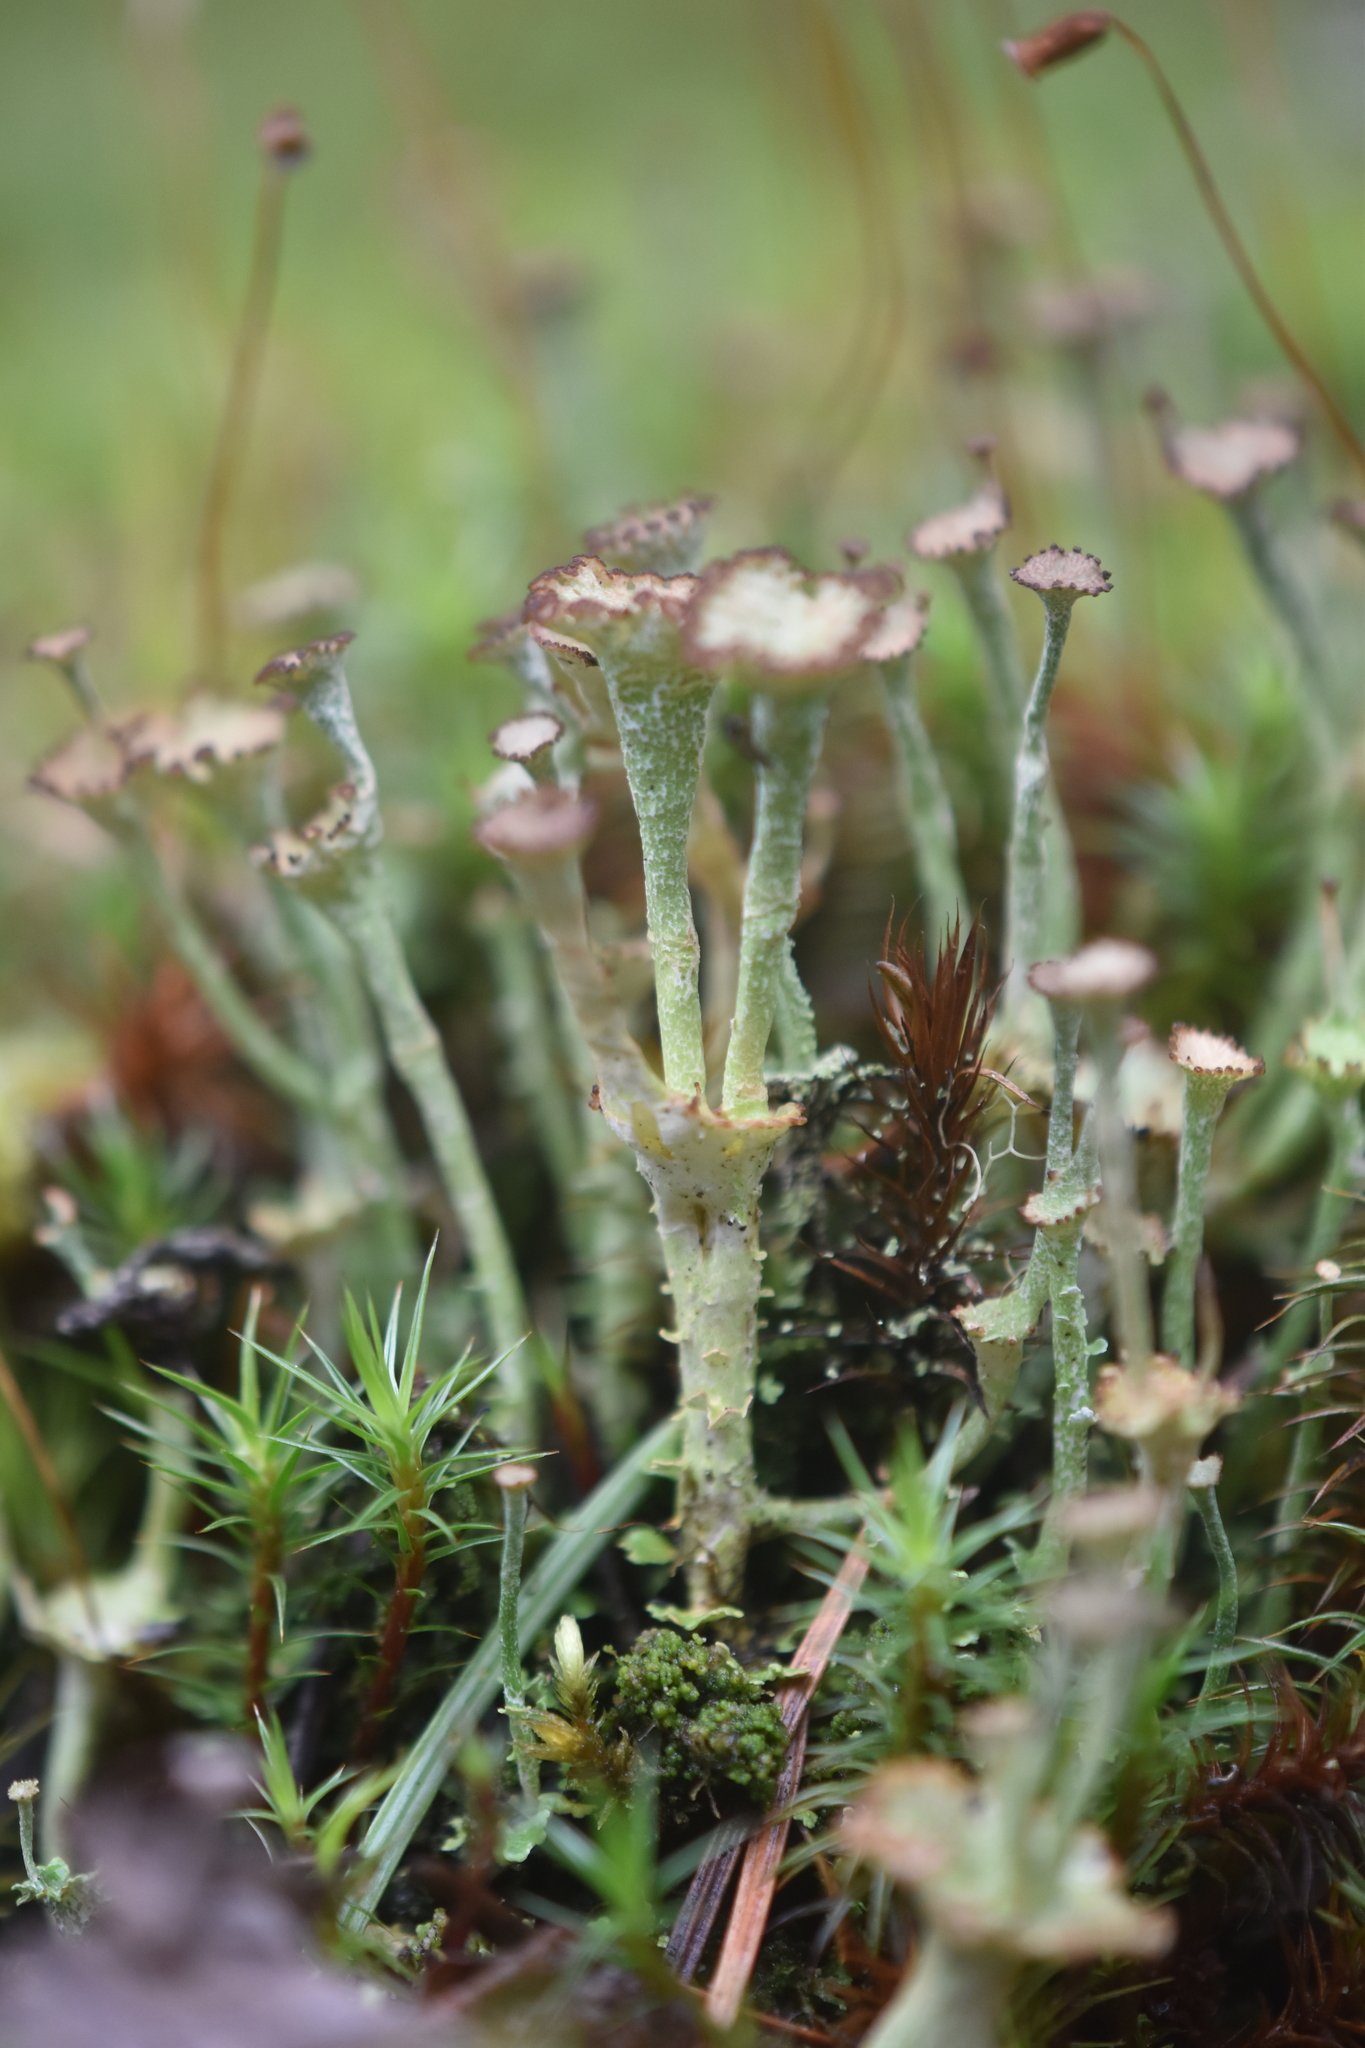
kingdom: Fungi
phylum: Ascomycota
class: Lecanoromycetes
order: Lecanorales
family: Cladoniaceae
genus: Cladonia
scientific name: Cladonia cervicornis
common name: Browned pixie-cup lichen
